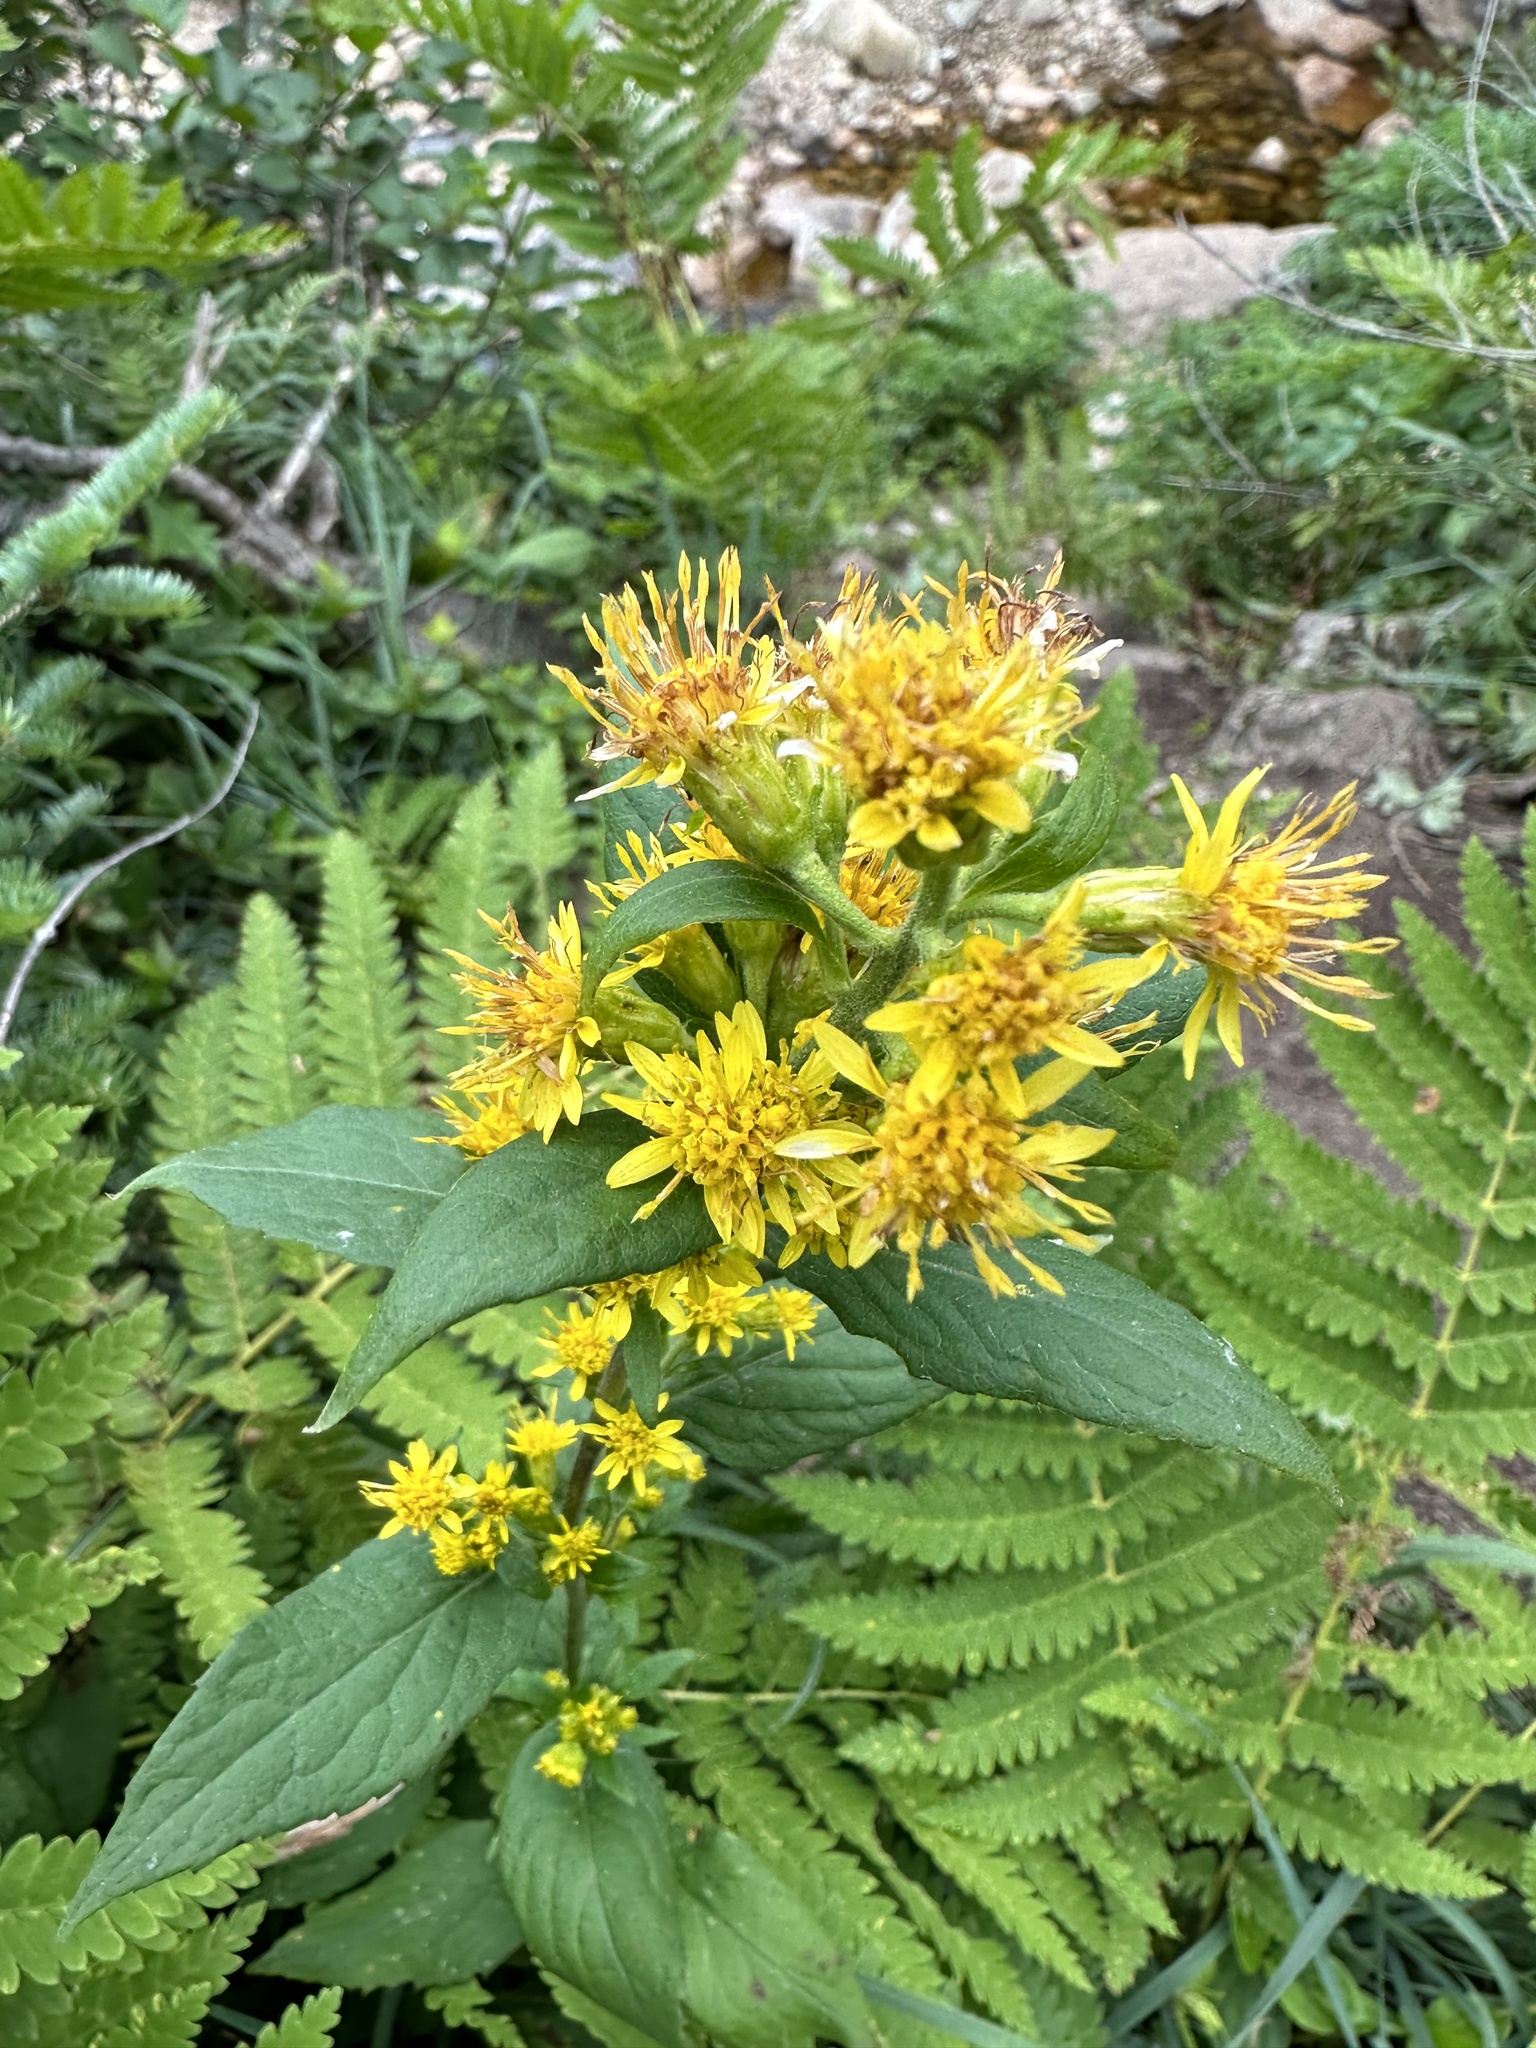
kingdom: Plantae
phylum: Tracheophyta
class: Magnoliopsida
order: Asterales
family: Asteraceae
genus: Solidago
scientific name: Solidago macrophylla
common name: Large-leaved goldenrod
